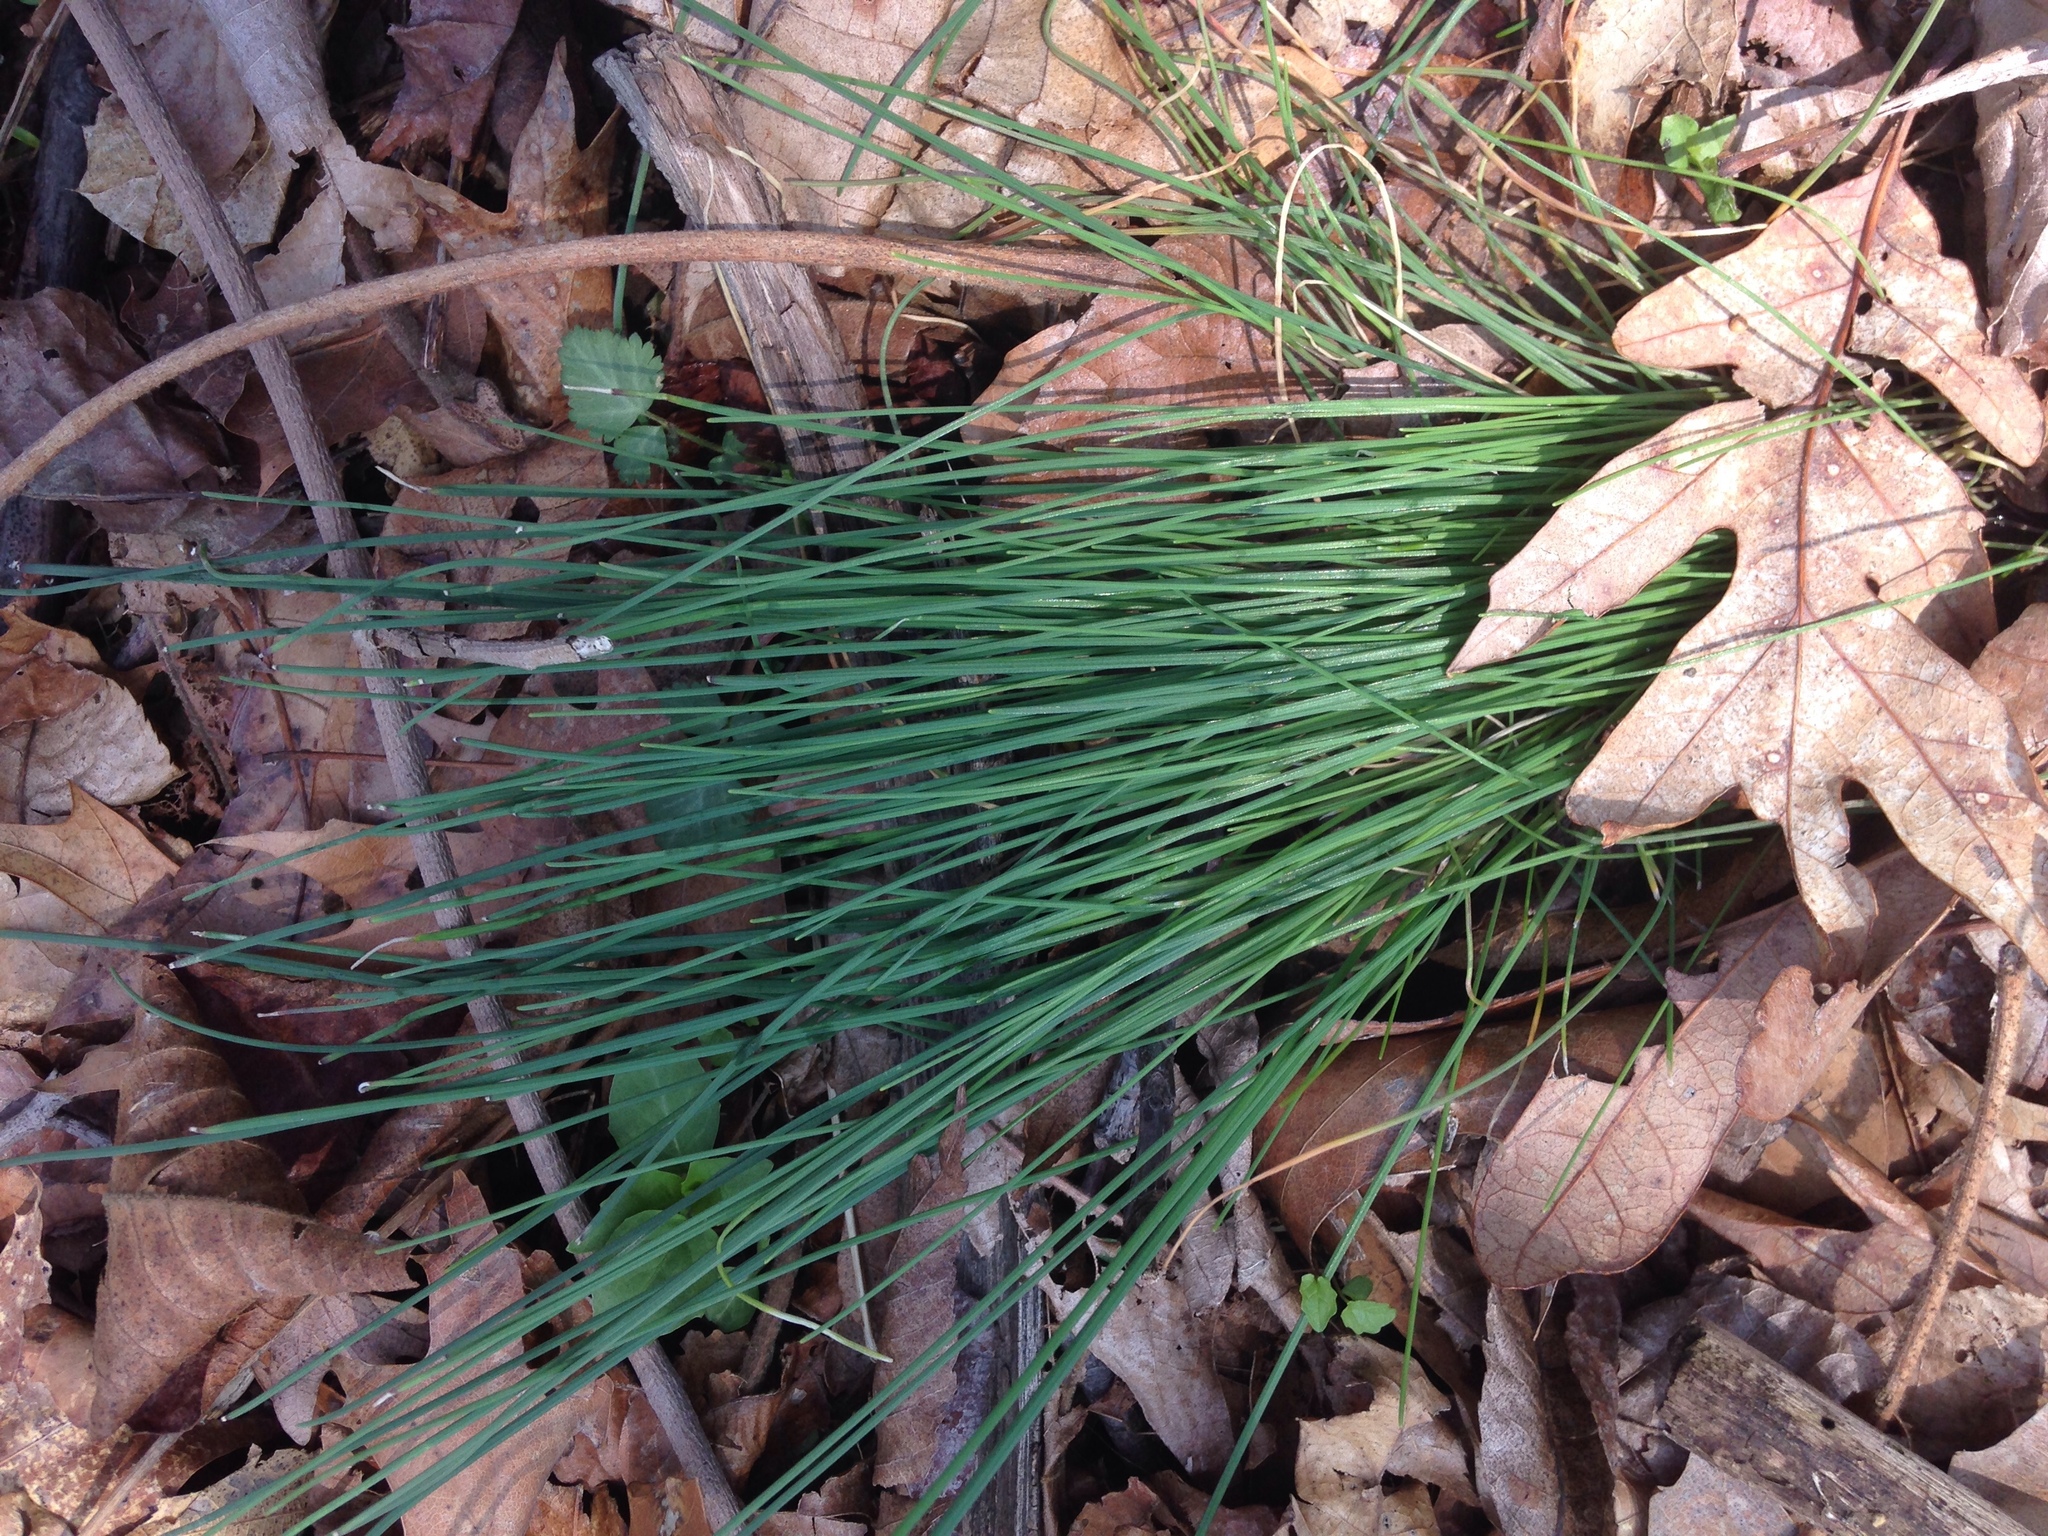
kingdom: Plantae
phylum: Tracheophyta
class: Liliopsida
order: Asparagales
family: Amaryllidaceae
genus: Allium
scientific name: Allium vineale
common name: Crow garlic
